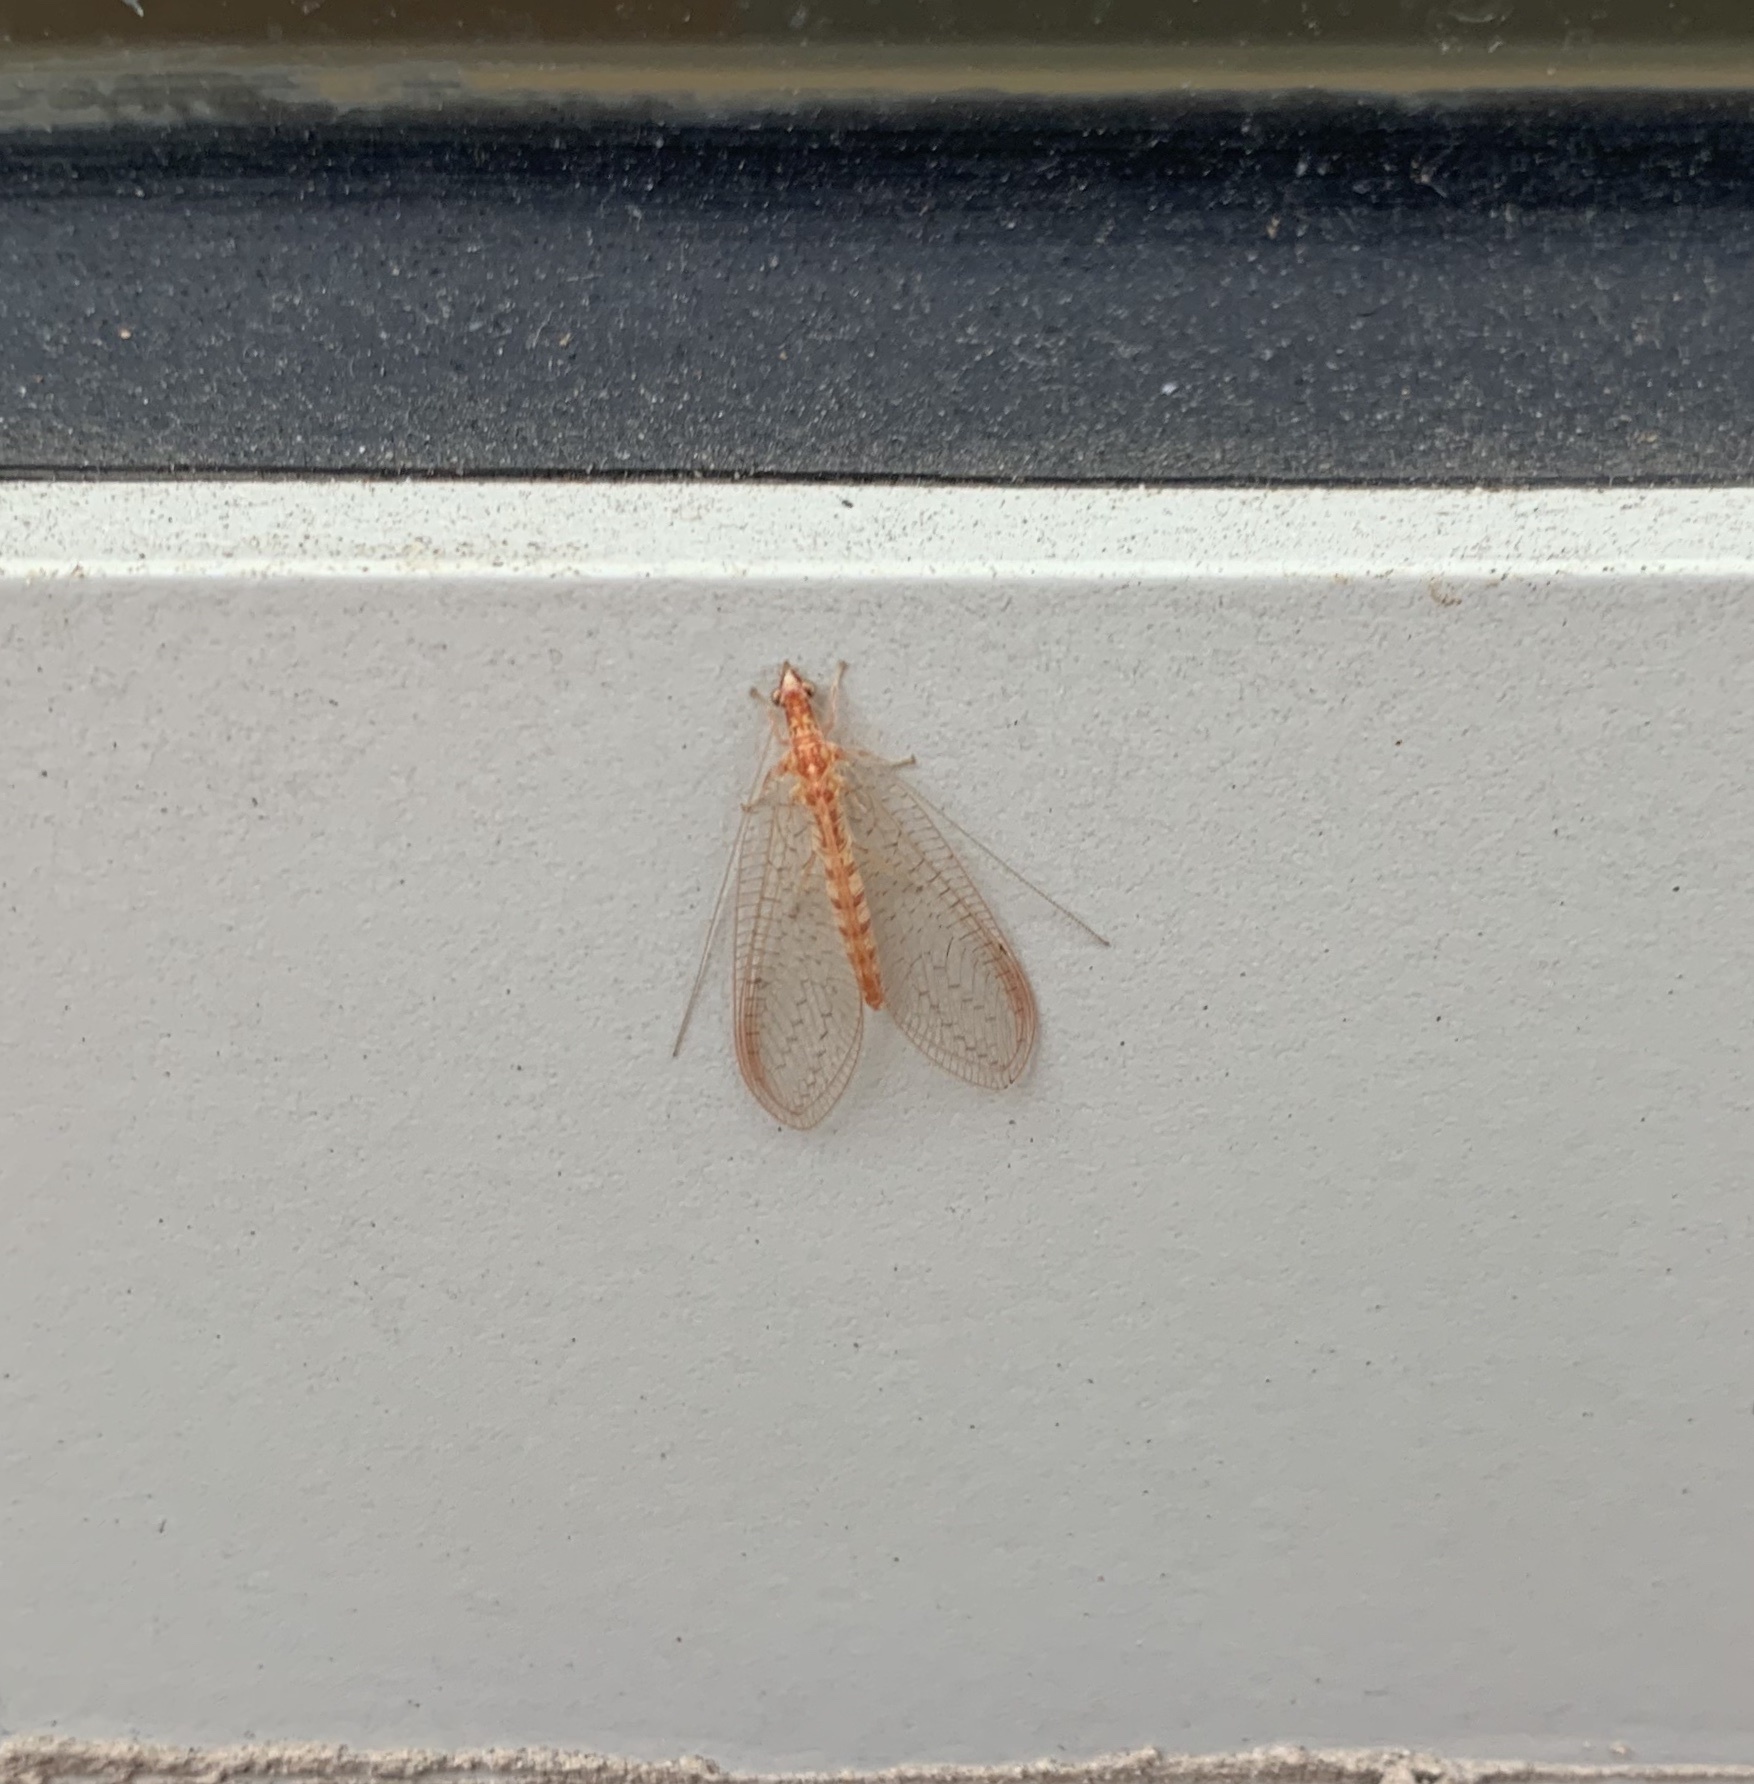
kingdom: Animalia
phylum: Arthropoda
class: Insecta
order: Neuroptera
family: Chrysopidae
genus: Chrysoperla
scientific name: Chrysoperla
